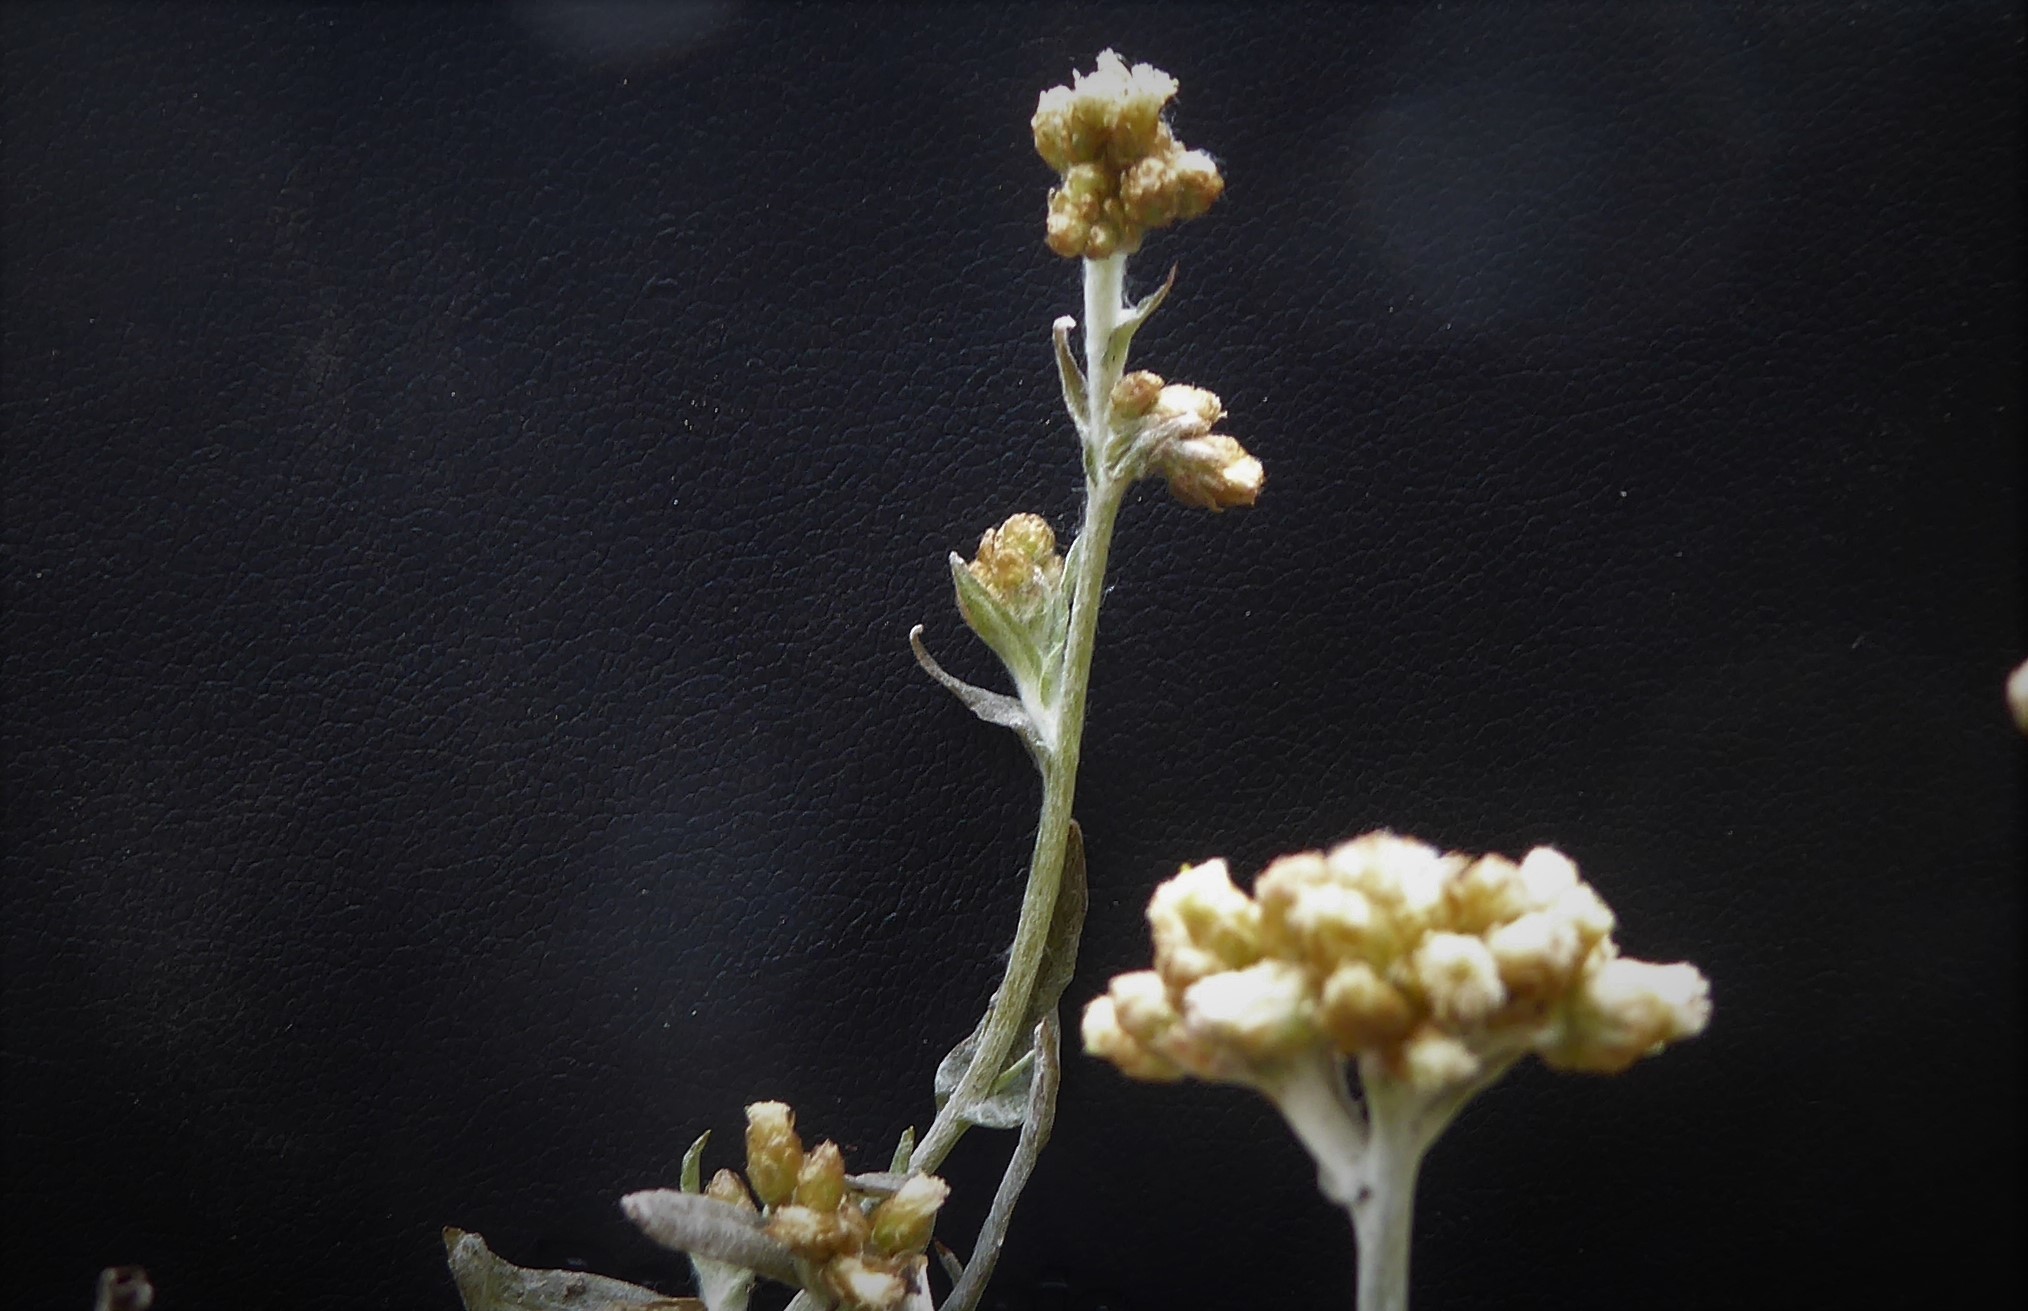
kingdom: Plantae
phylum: Tracheophyta
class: Magnoliopsida
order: Asterales
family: Asteraceae
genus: Helichrysum
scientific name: Helichrysum luteoalbum
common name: Daisy
